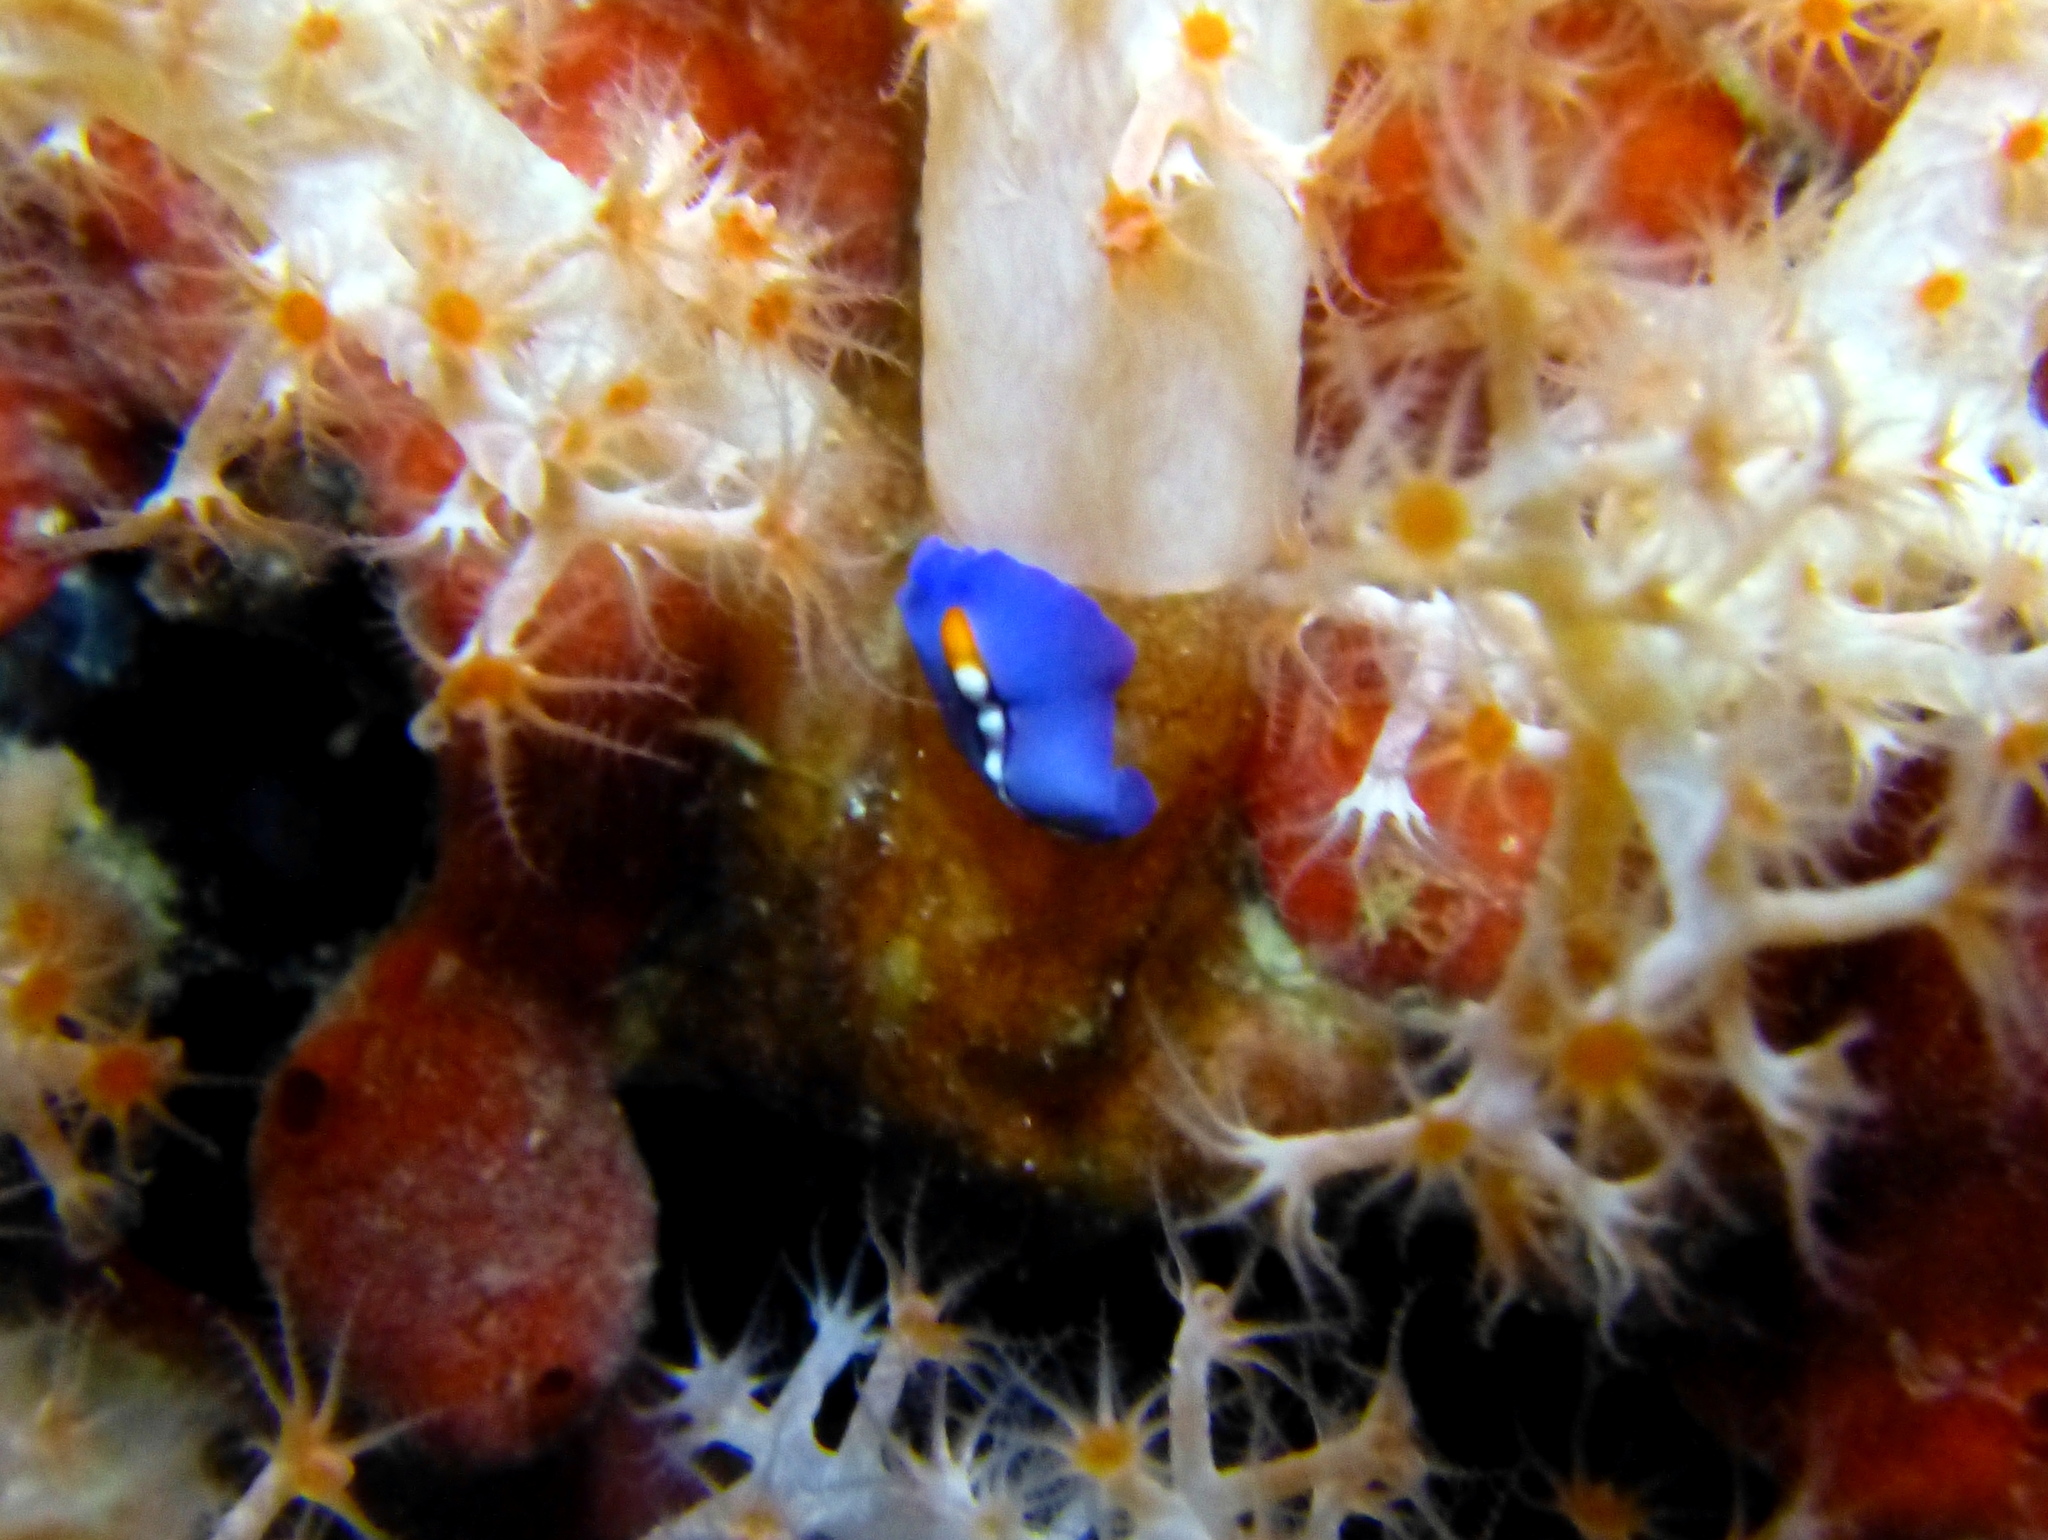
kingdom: Animalia
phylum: Platyhelminthes
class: Turbellaria
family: Pseudocerotidae
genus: Pseudoceros
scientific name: Pseudoceros liparus
